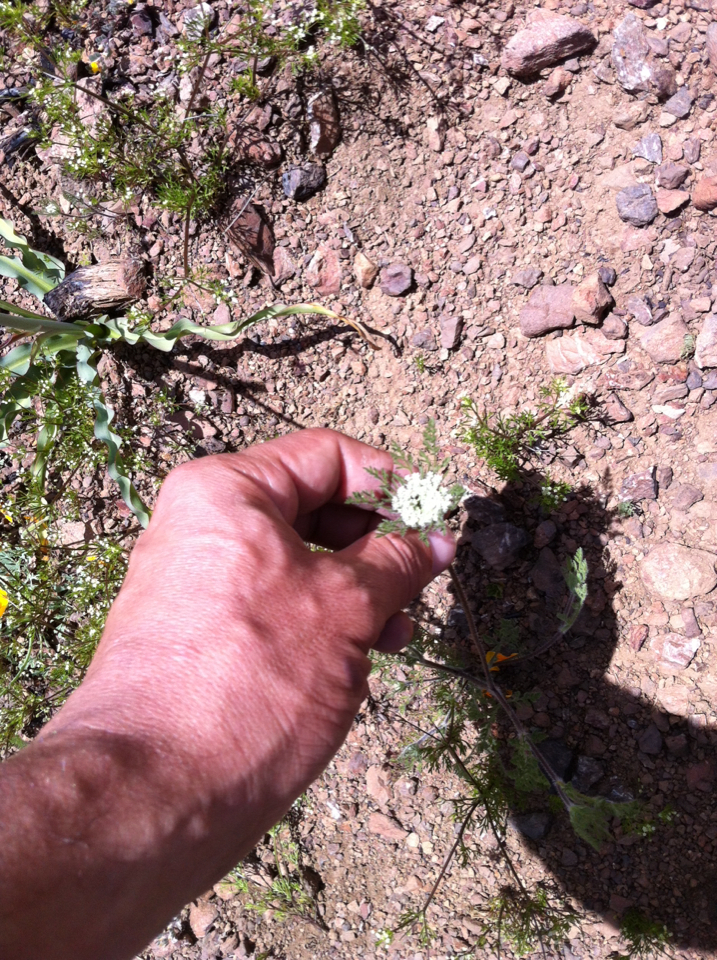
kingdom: Plantae
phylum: Tracheophyta
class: Magnoliopsida
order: Apiales
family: Apiaceae
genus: Daucus
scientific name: Daucus pusillus
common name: Southwest wild carrot
